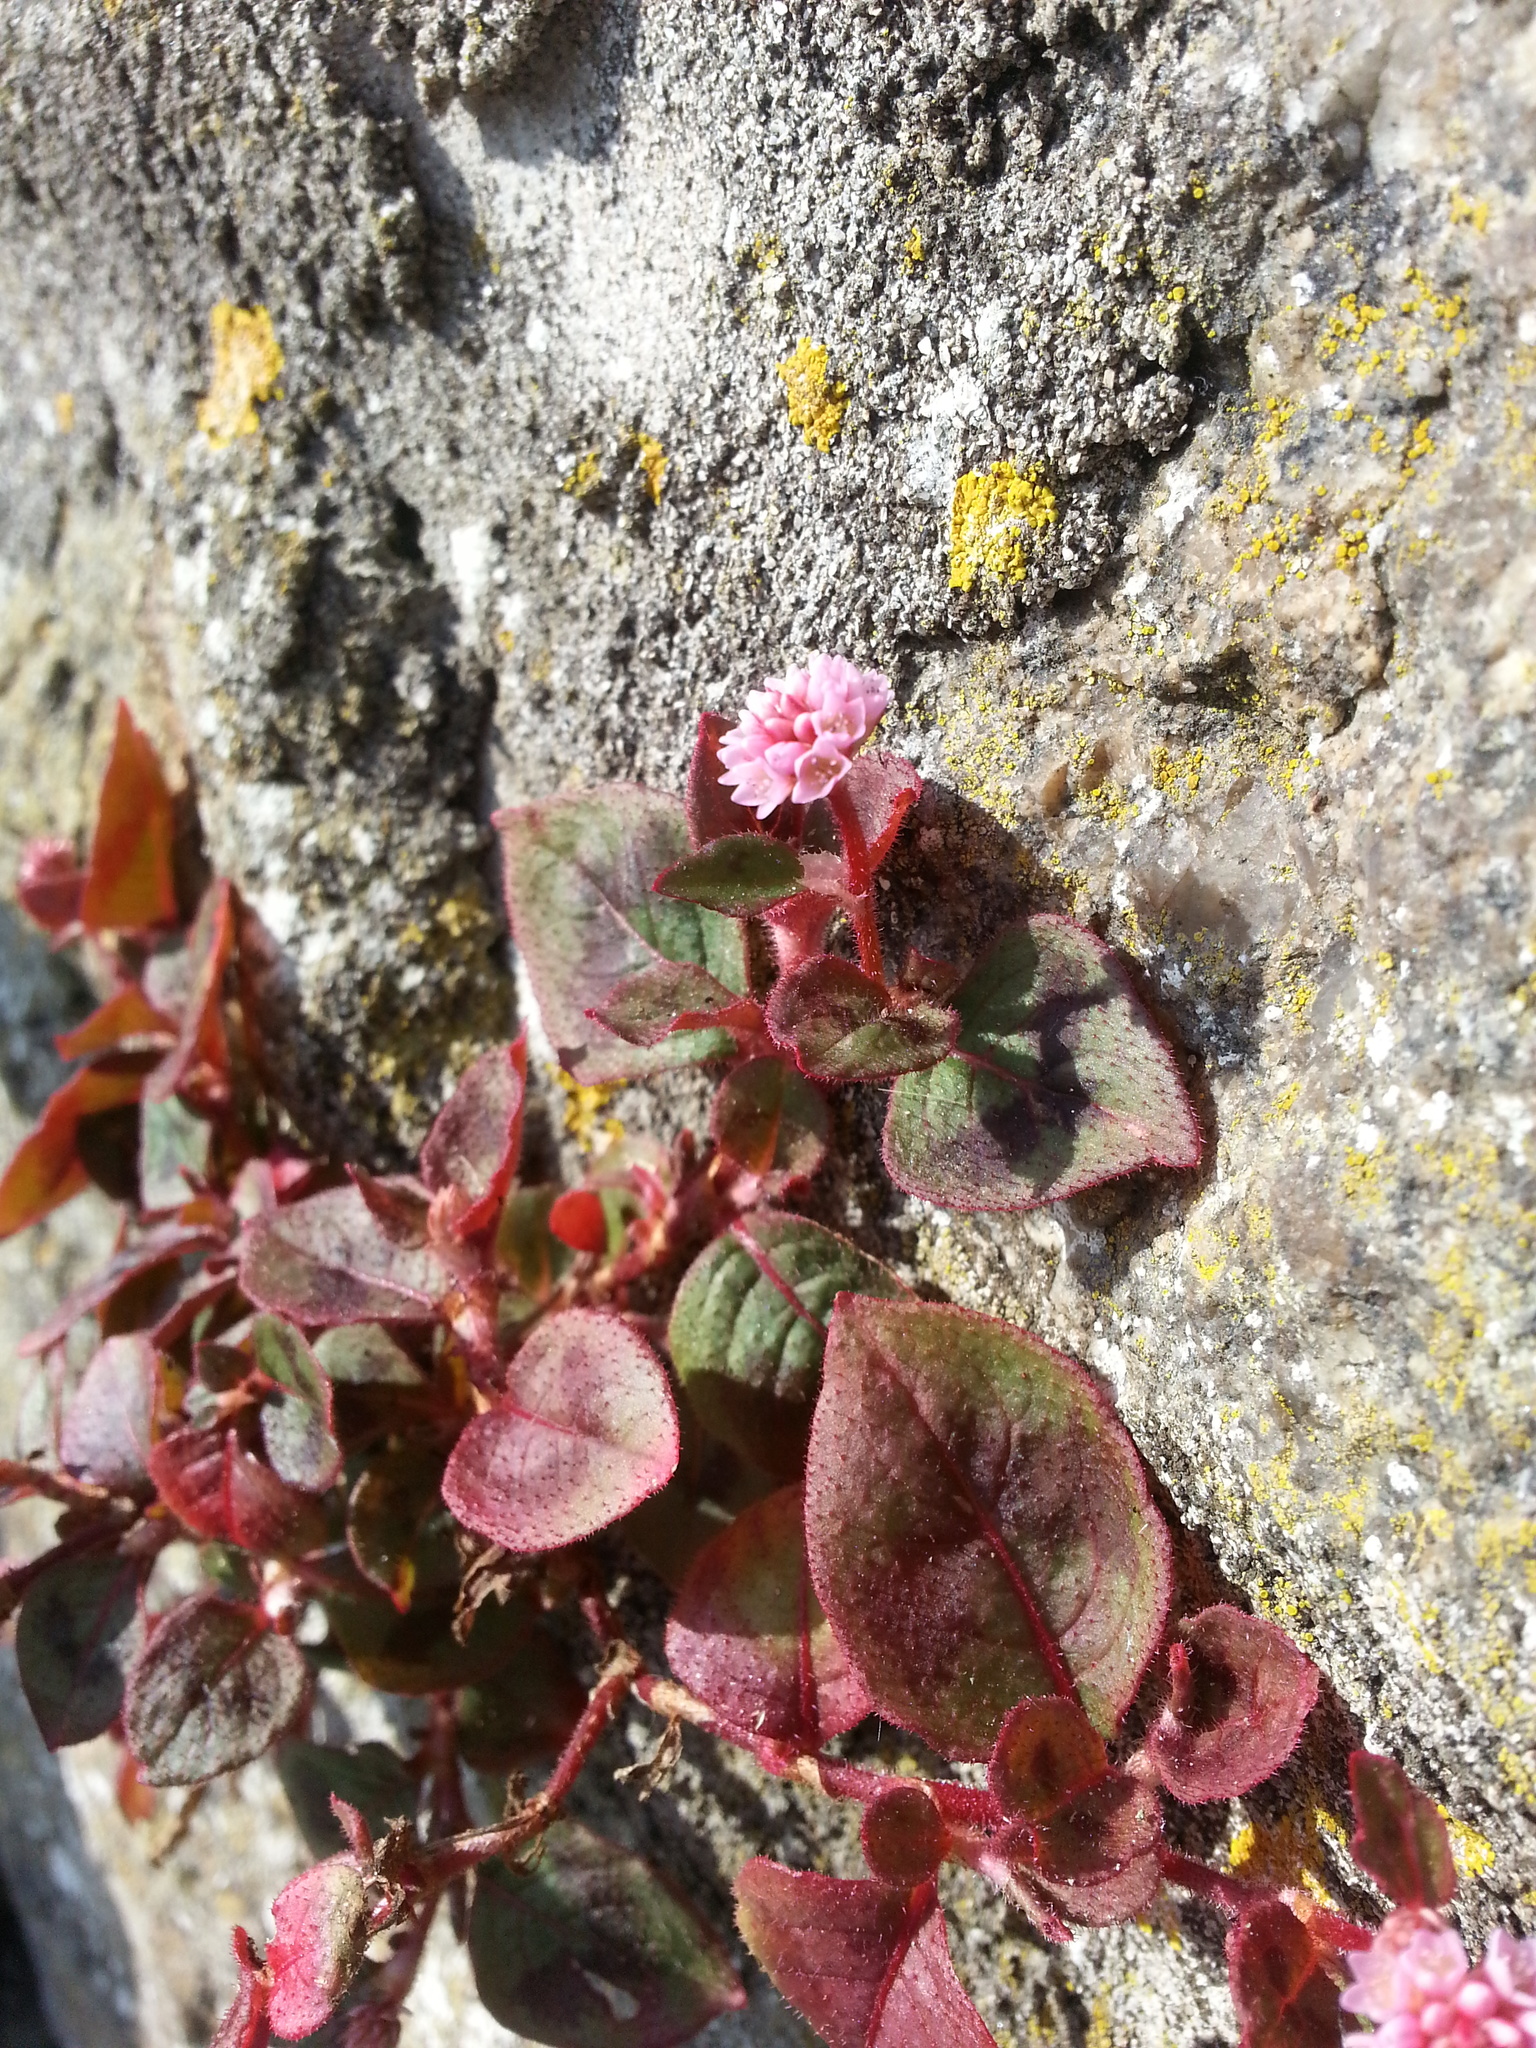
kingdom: Plantae
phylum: Tracheophyta
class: Magnoliopsida
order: Caryophyllales
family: Polygonaceae
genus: Persicaria
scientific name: Persicaria capitata
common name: Pinkhead smartweed
